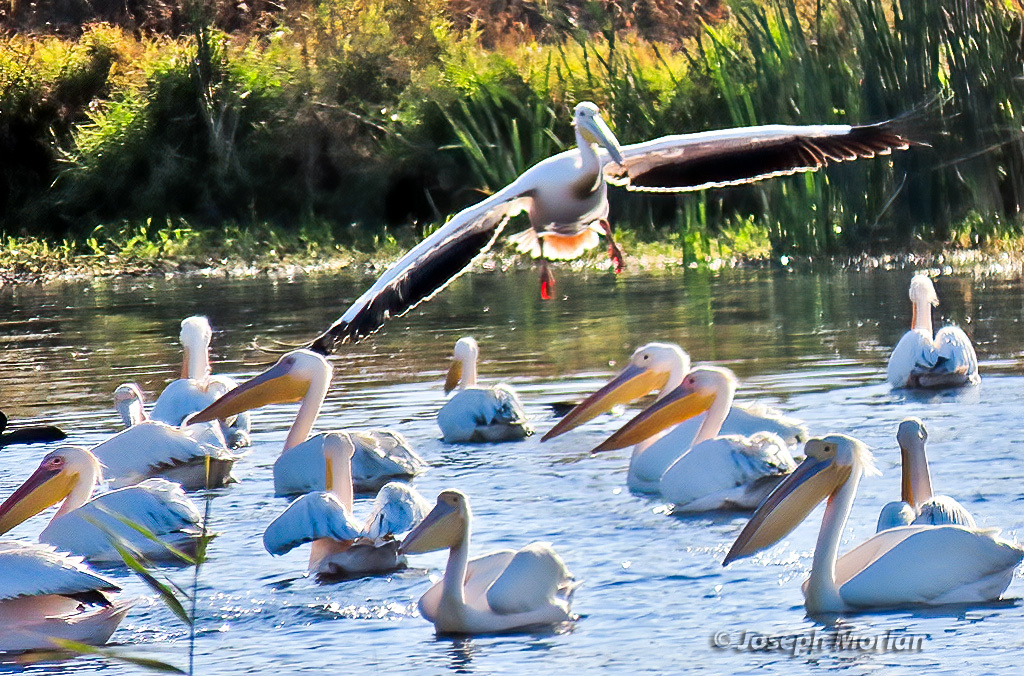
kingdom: Animalia
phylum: Chordata
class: Aves
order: Pelecaniformes
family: Pelecanidae
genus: Pelecanus
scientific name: Pelecanus onocrotalus
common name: Great white pelican
